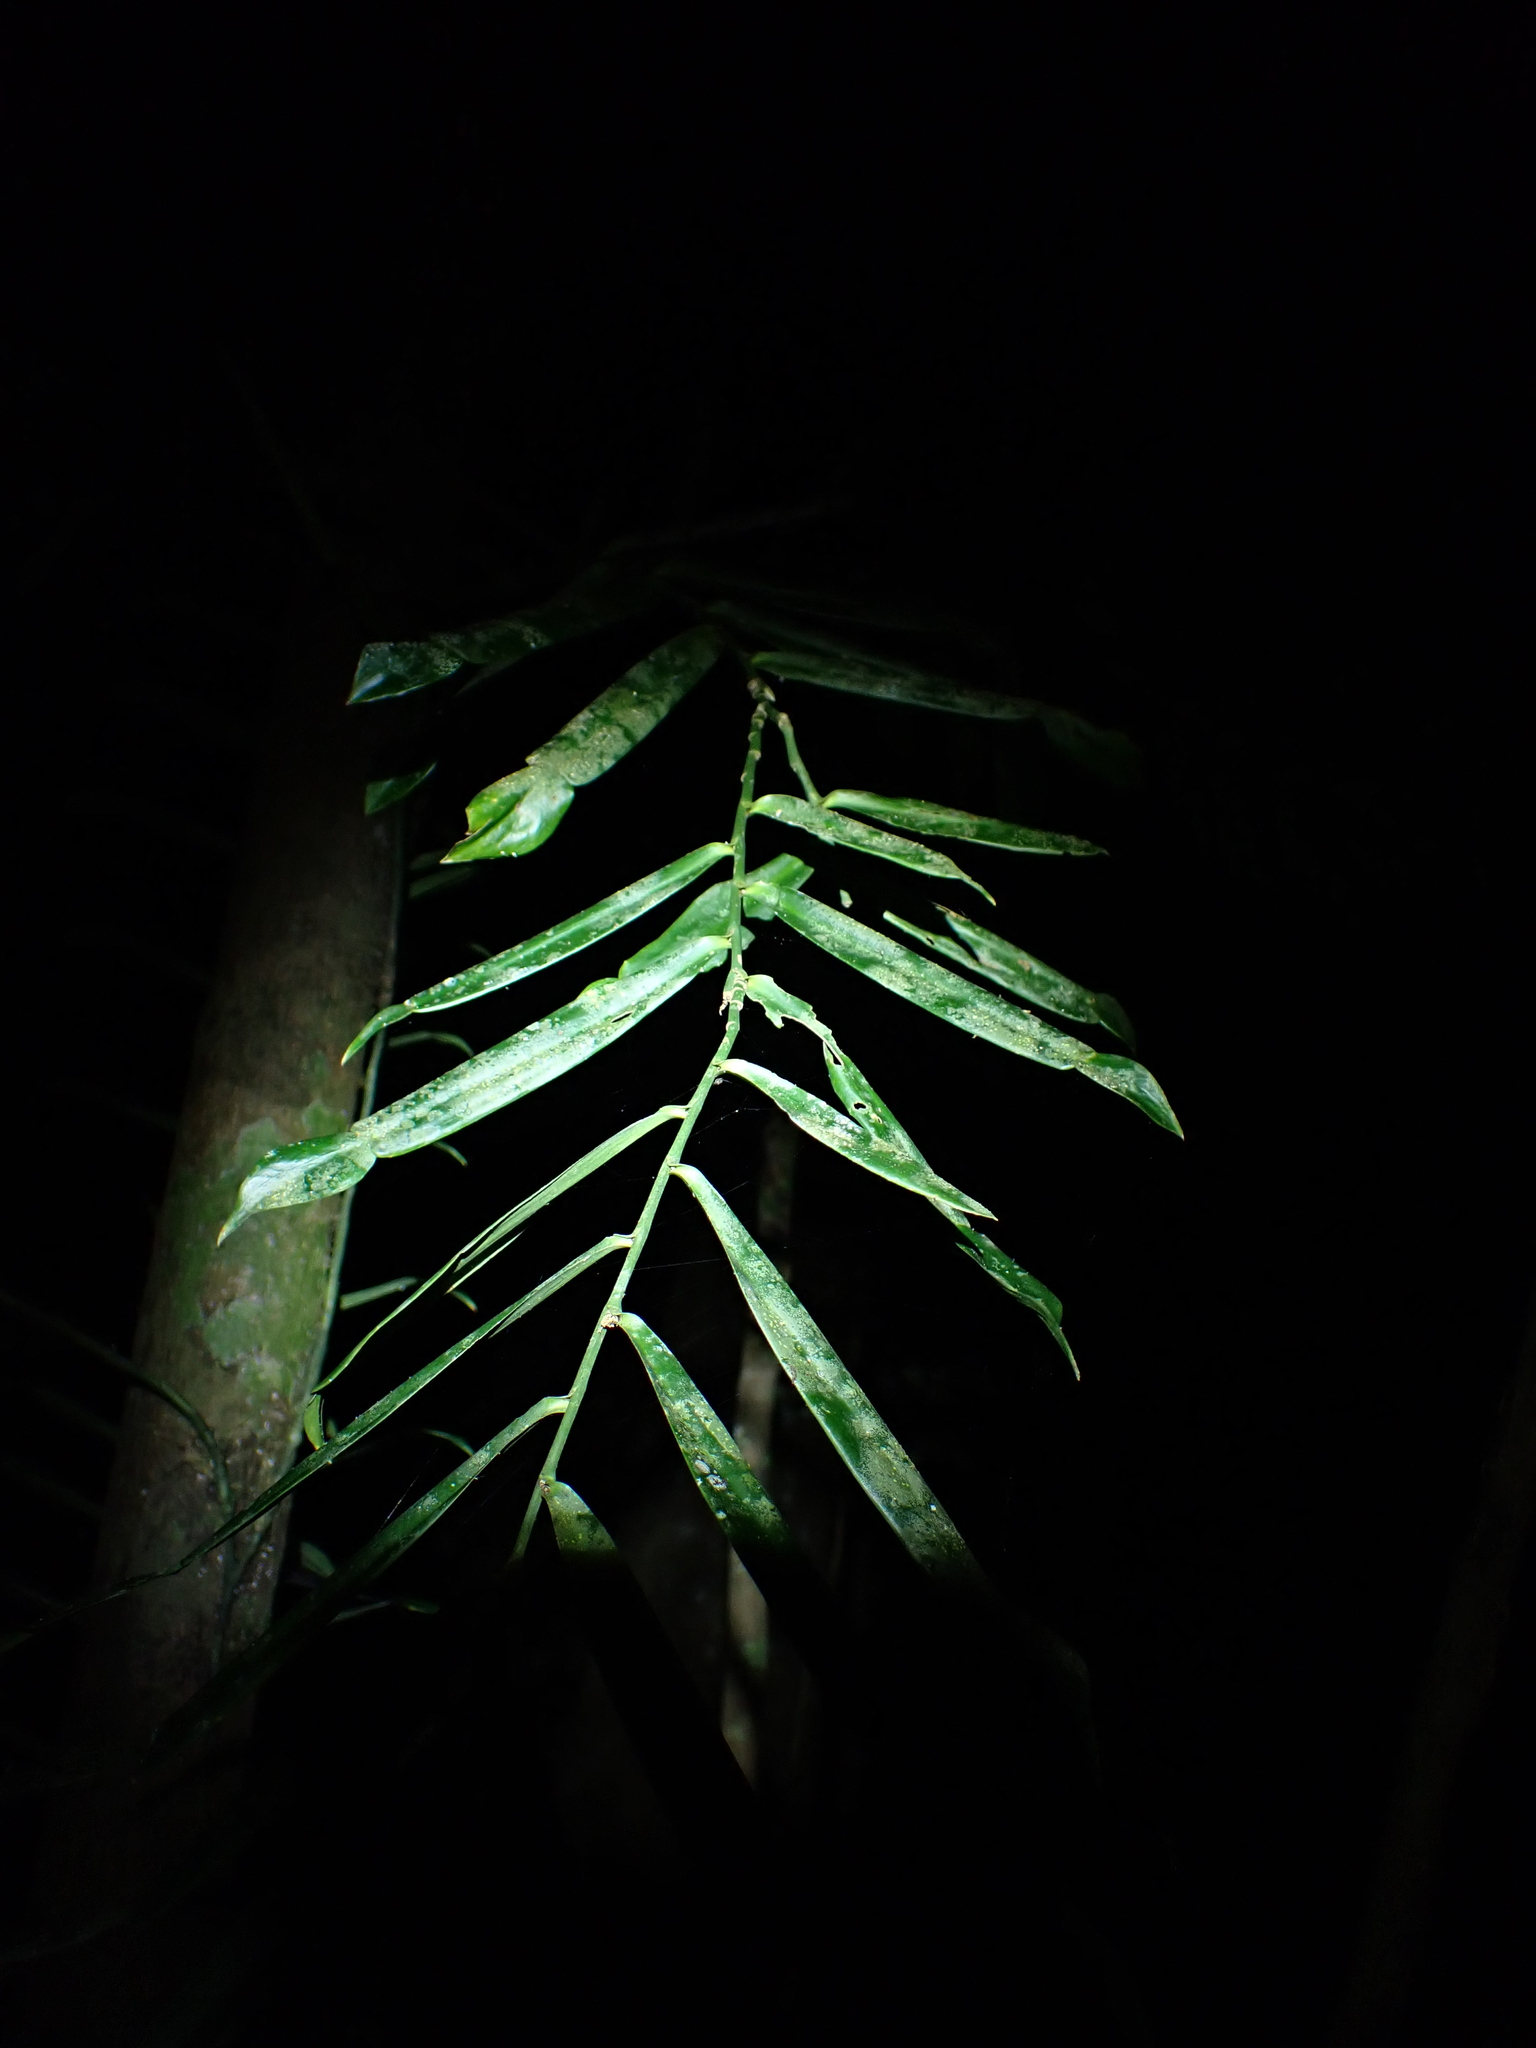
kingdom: Plantae
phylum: Tracheophyta
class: Liliopsida
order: Alismatales
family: Araceae
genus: Pothos
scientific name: Pothos longipes
